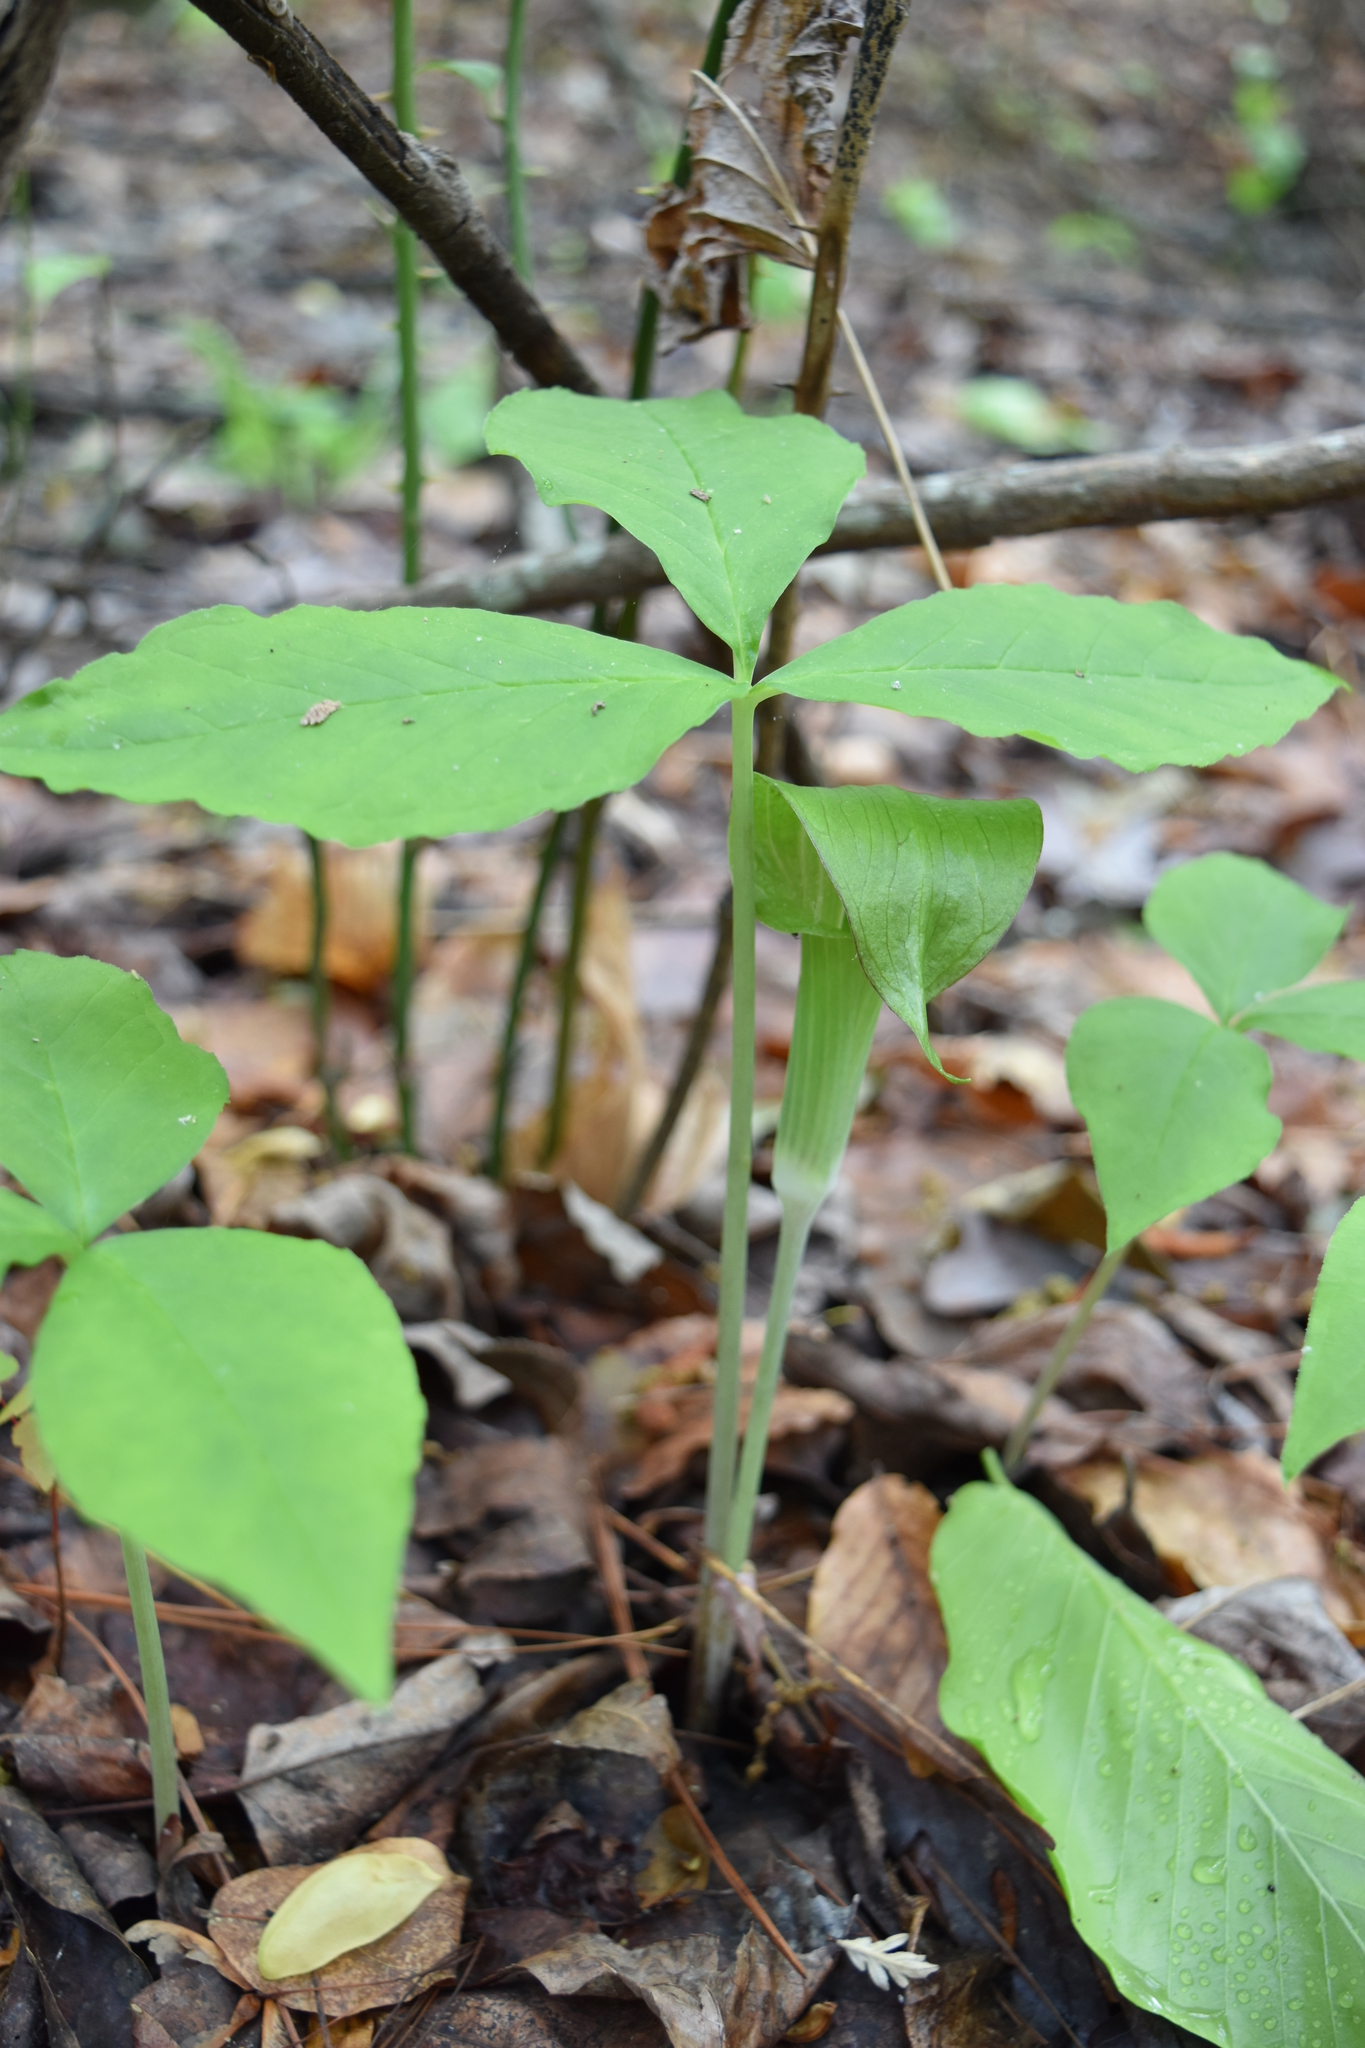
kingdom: Plantae
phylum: Tracheophyta
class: Liliopsida
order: Alismatales
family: Araceae
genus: Arisaema
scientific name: Arisaema triphyllum
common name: Jack-in-the-pulpit
